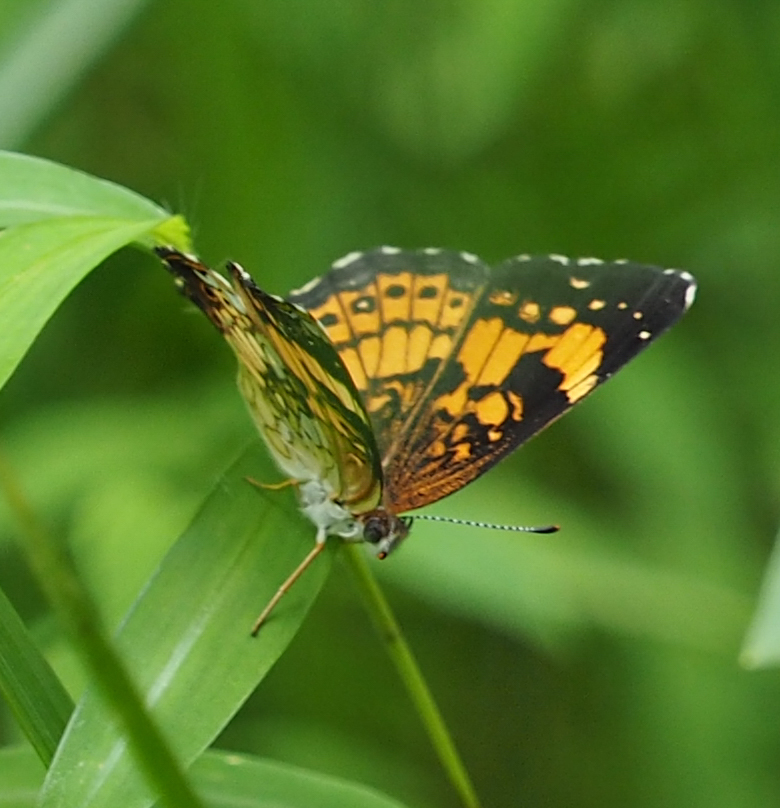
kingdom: Animalia
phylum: Arthropoda
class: Insecta
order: Lepidoptera
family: Nymphalidae
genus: Chlosyne
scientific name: Chlosyne nycteis
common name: Silvery checkerspot
